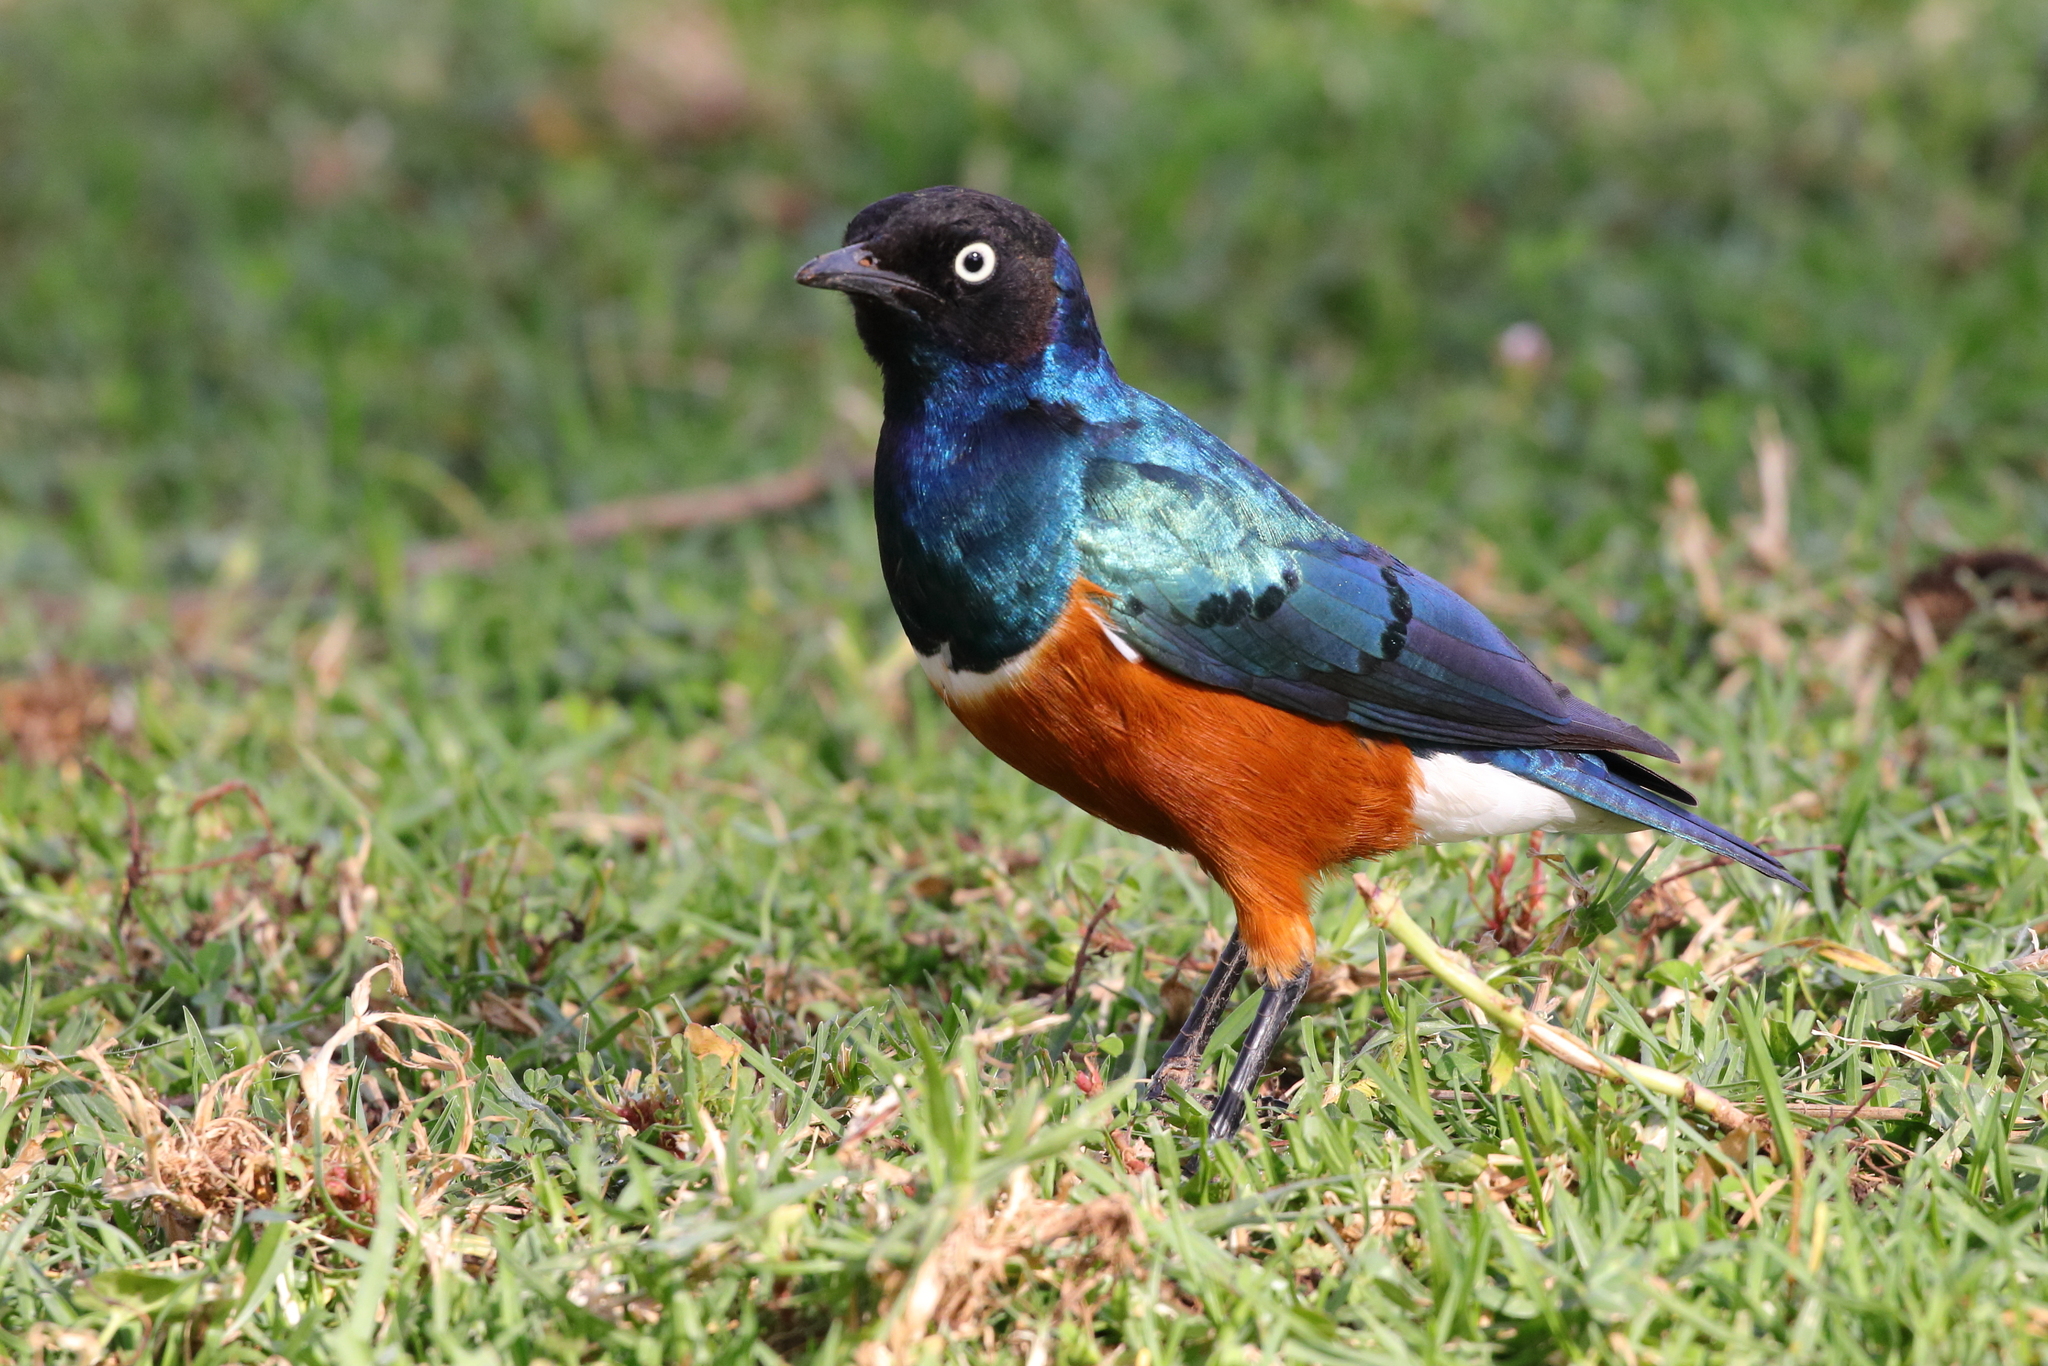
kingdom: Animalia
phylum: Chordata
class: Aves
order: Passeriformes
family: Sturnidae
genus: Lamprotornis
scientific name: Lamprotornis superbus
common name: Superb starling
